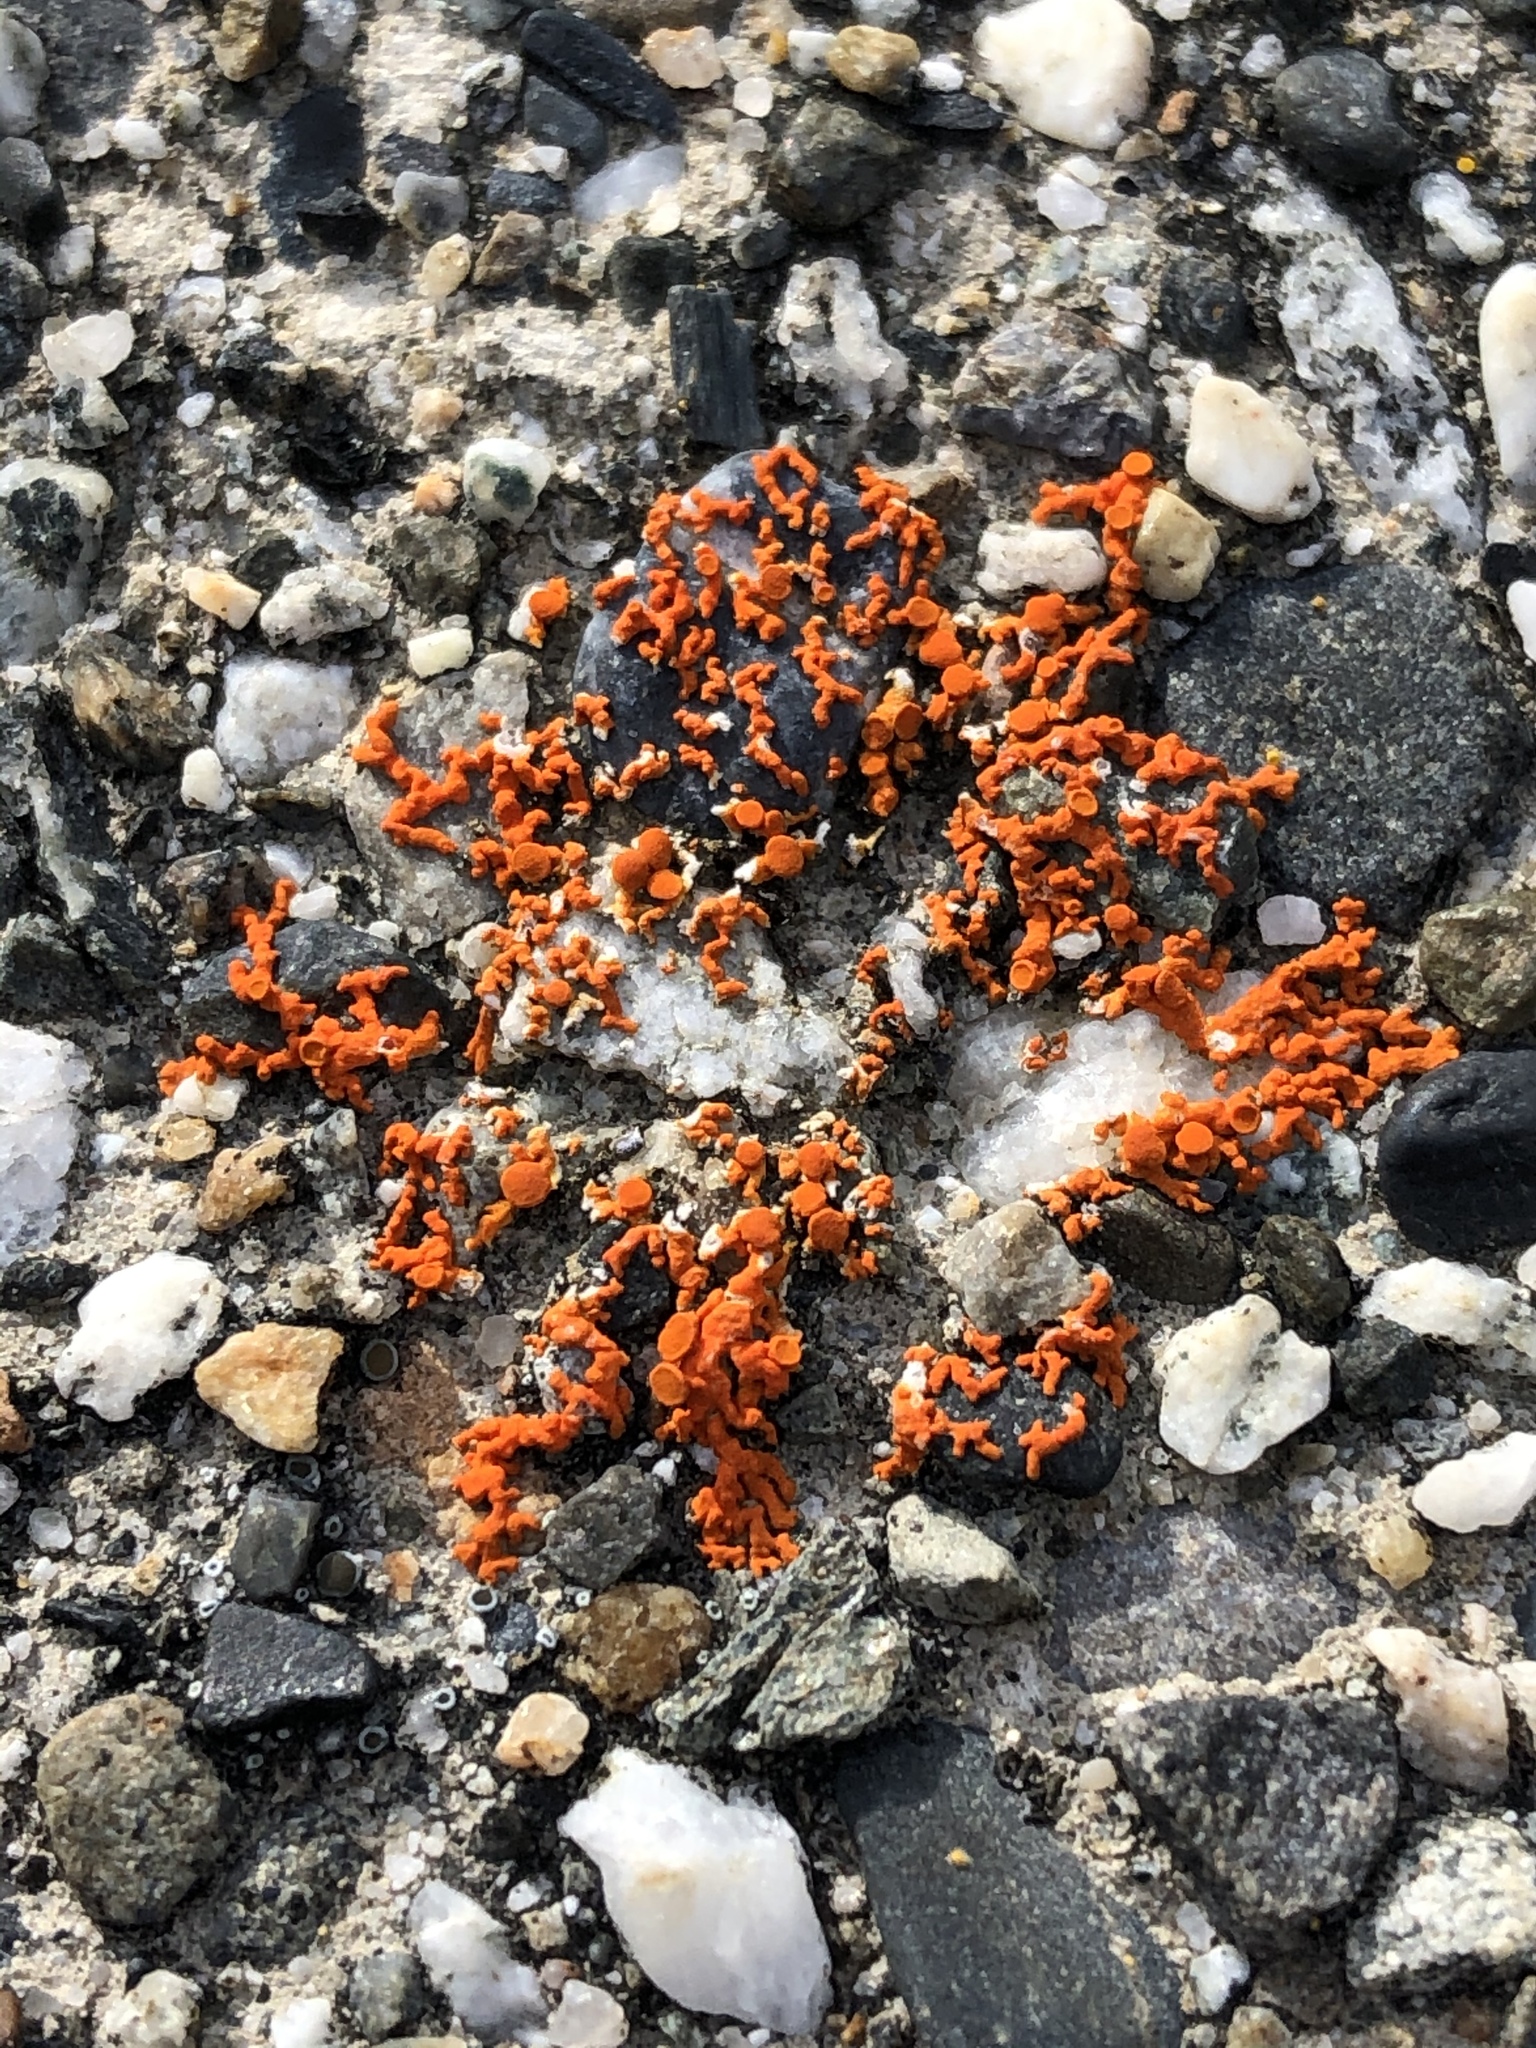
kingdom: Fungi
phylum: Ascomycota
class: Lecanoromycetes
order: Teloschistales
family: Teloschistaceae
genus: Xanthoria
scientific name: Xanthoria elegans
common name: Elegant sunburst lichen
